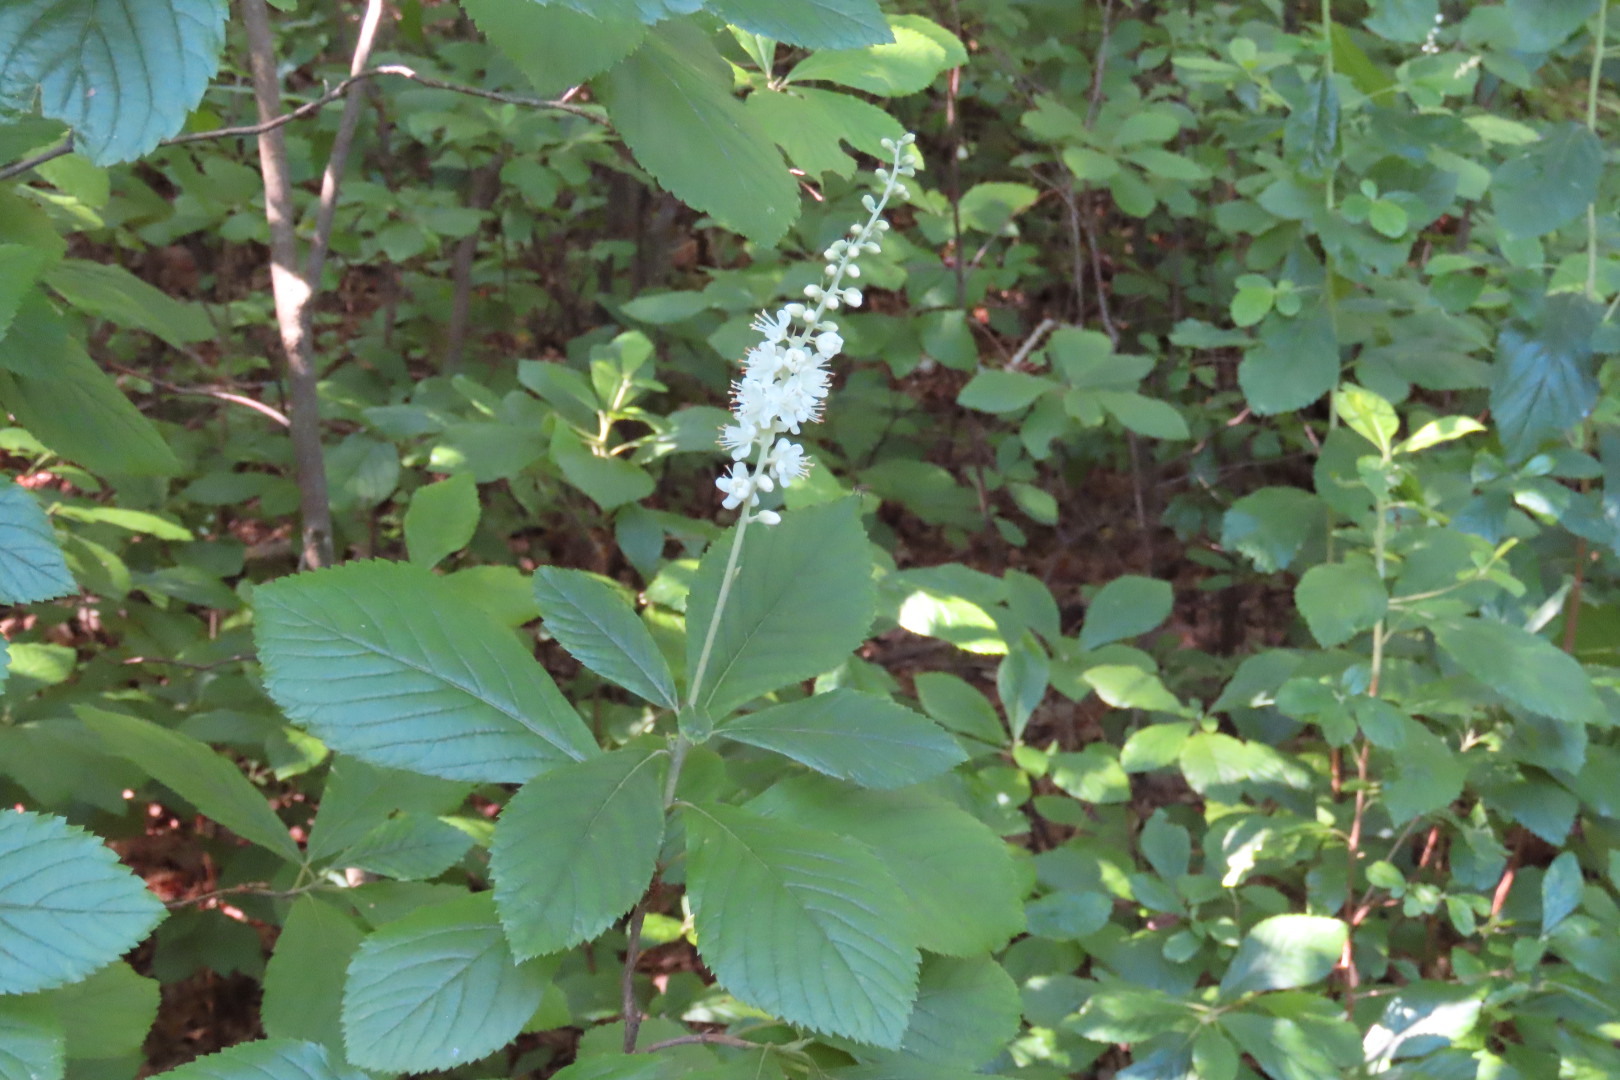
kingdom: Plantae
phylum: Tracheophyta
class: Magnoliopsida
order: Ericales
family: Clethraceae
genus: Clethra
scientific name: Clethra alnifolia
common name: Sweet pepperbush
